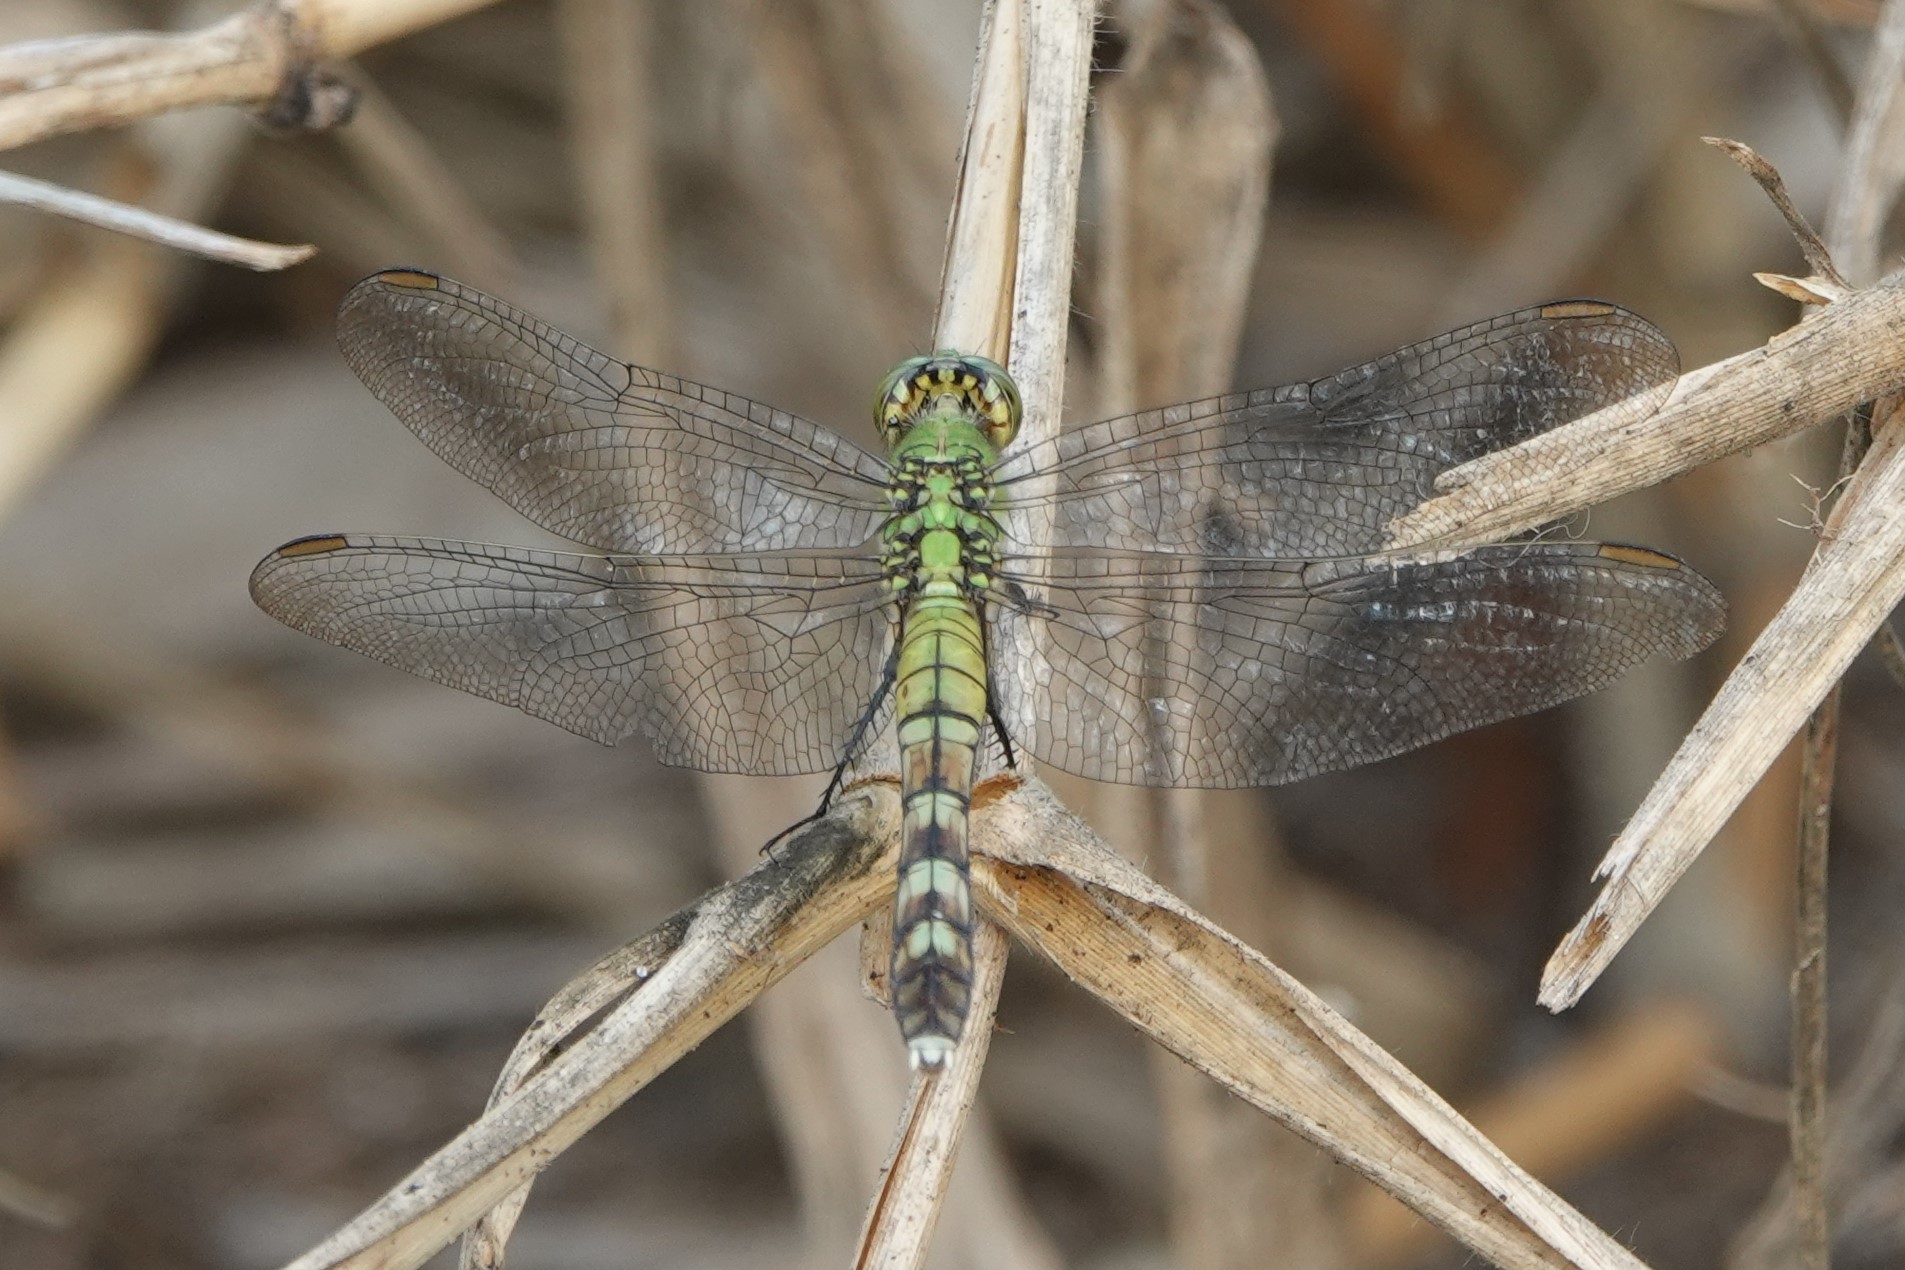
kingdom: Animalia
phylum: Arthropoda
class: Insecta
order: Odonata
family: Libellulidae
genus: Erythemis
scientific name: Erythemis simplicicollis
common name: Eastern pondhawk
